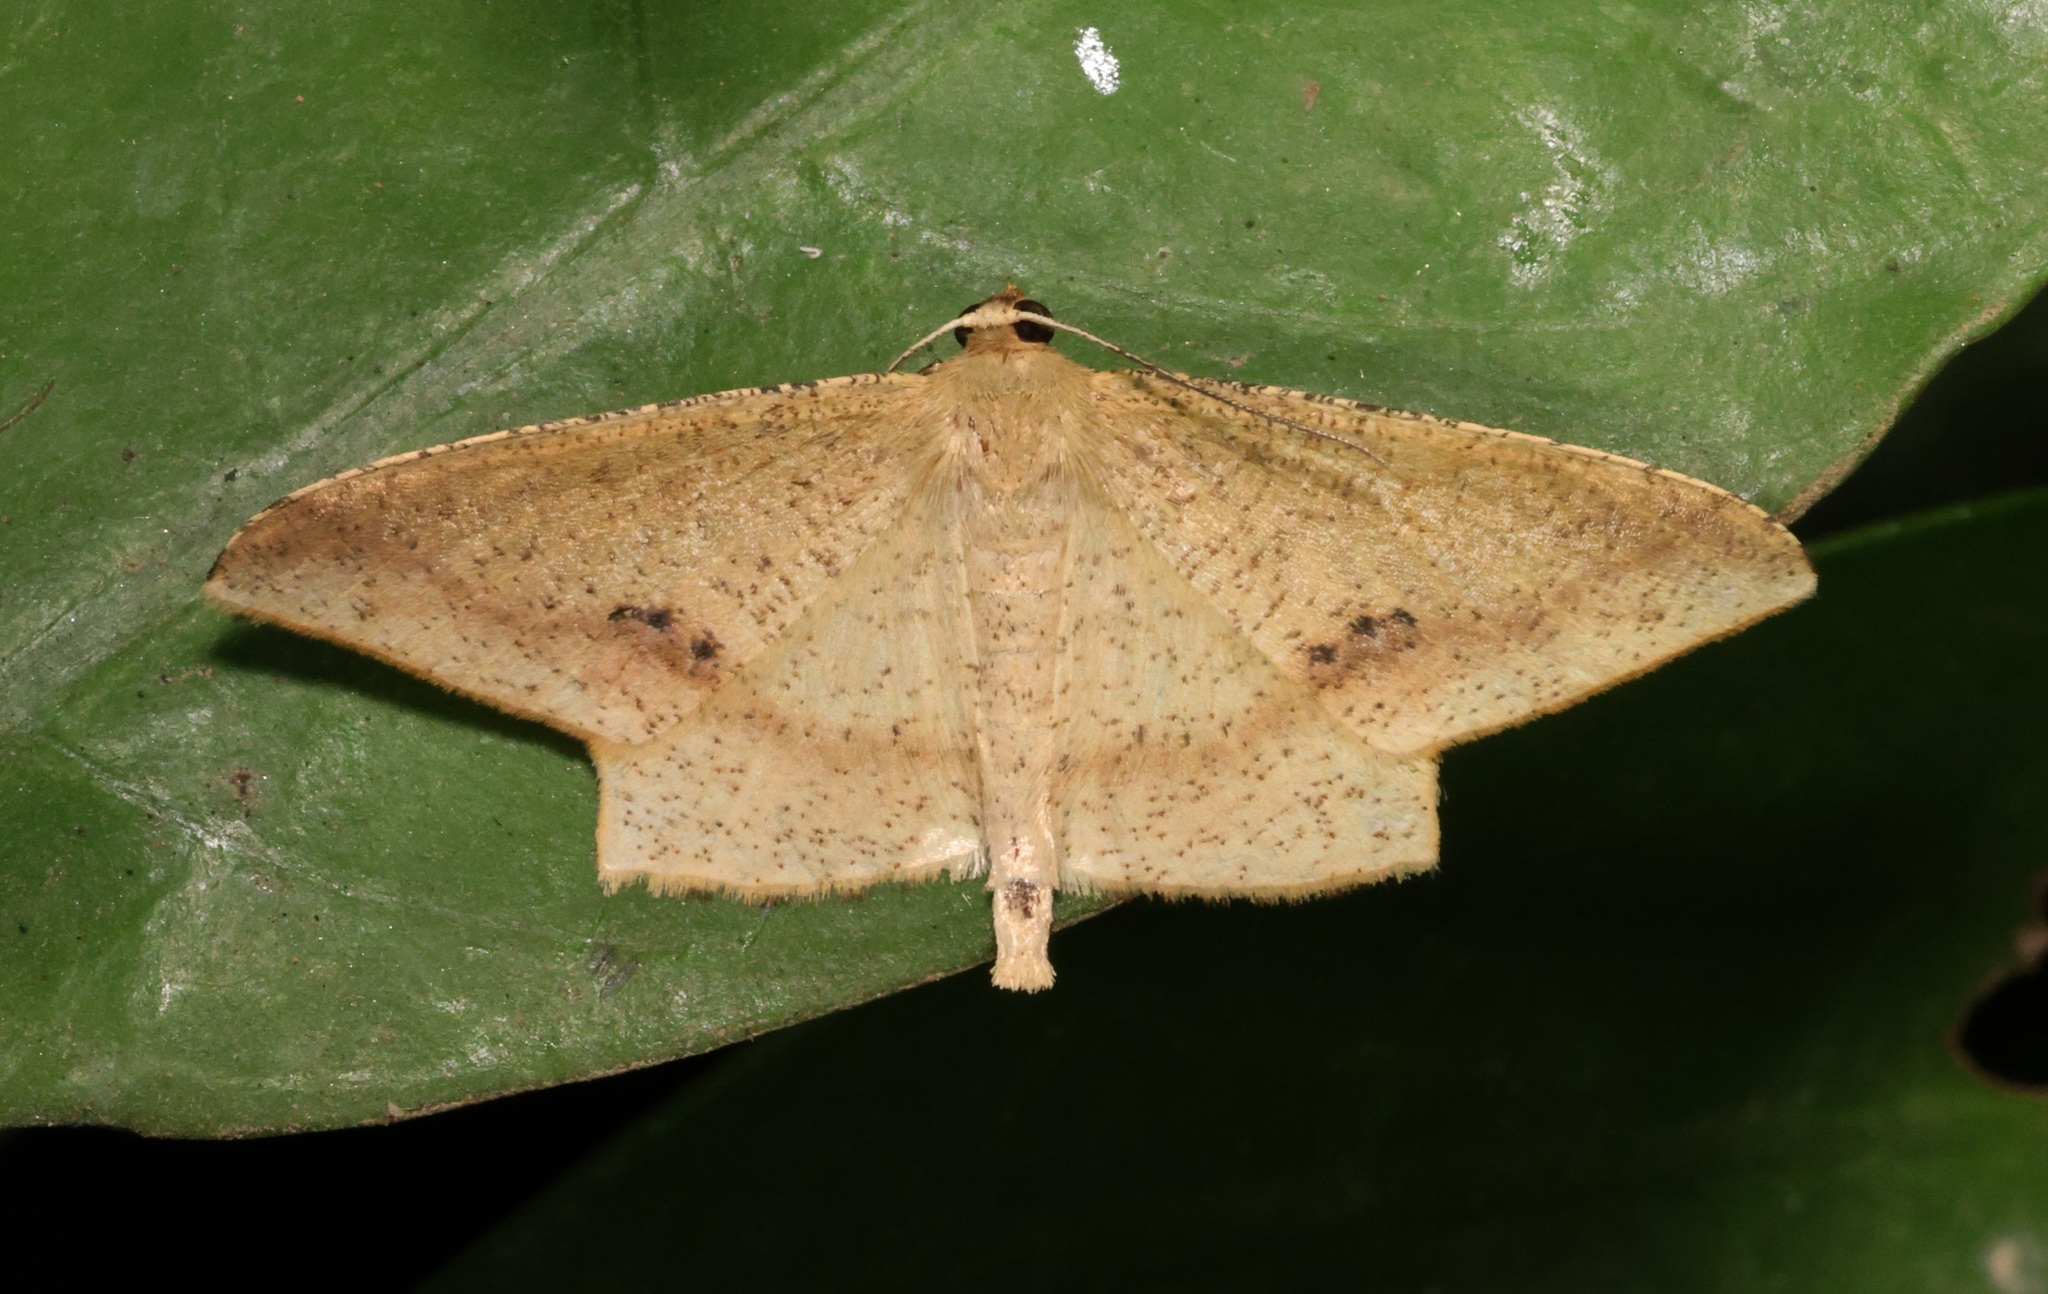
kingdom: Animalia
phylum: Arthropoda
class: Insecta
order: Lepidoptera
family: Geometridae
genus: Krananda
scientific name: Krananda falcata
